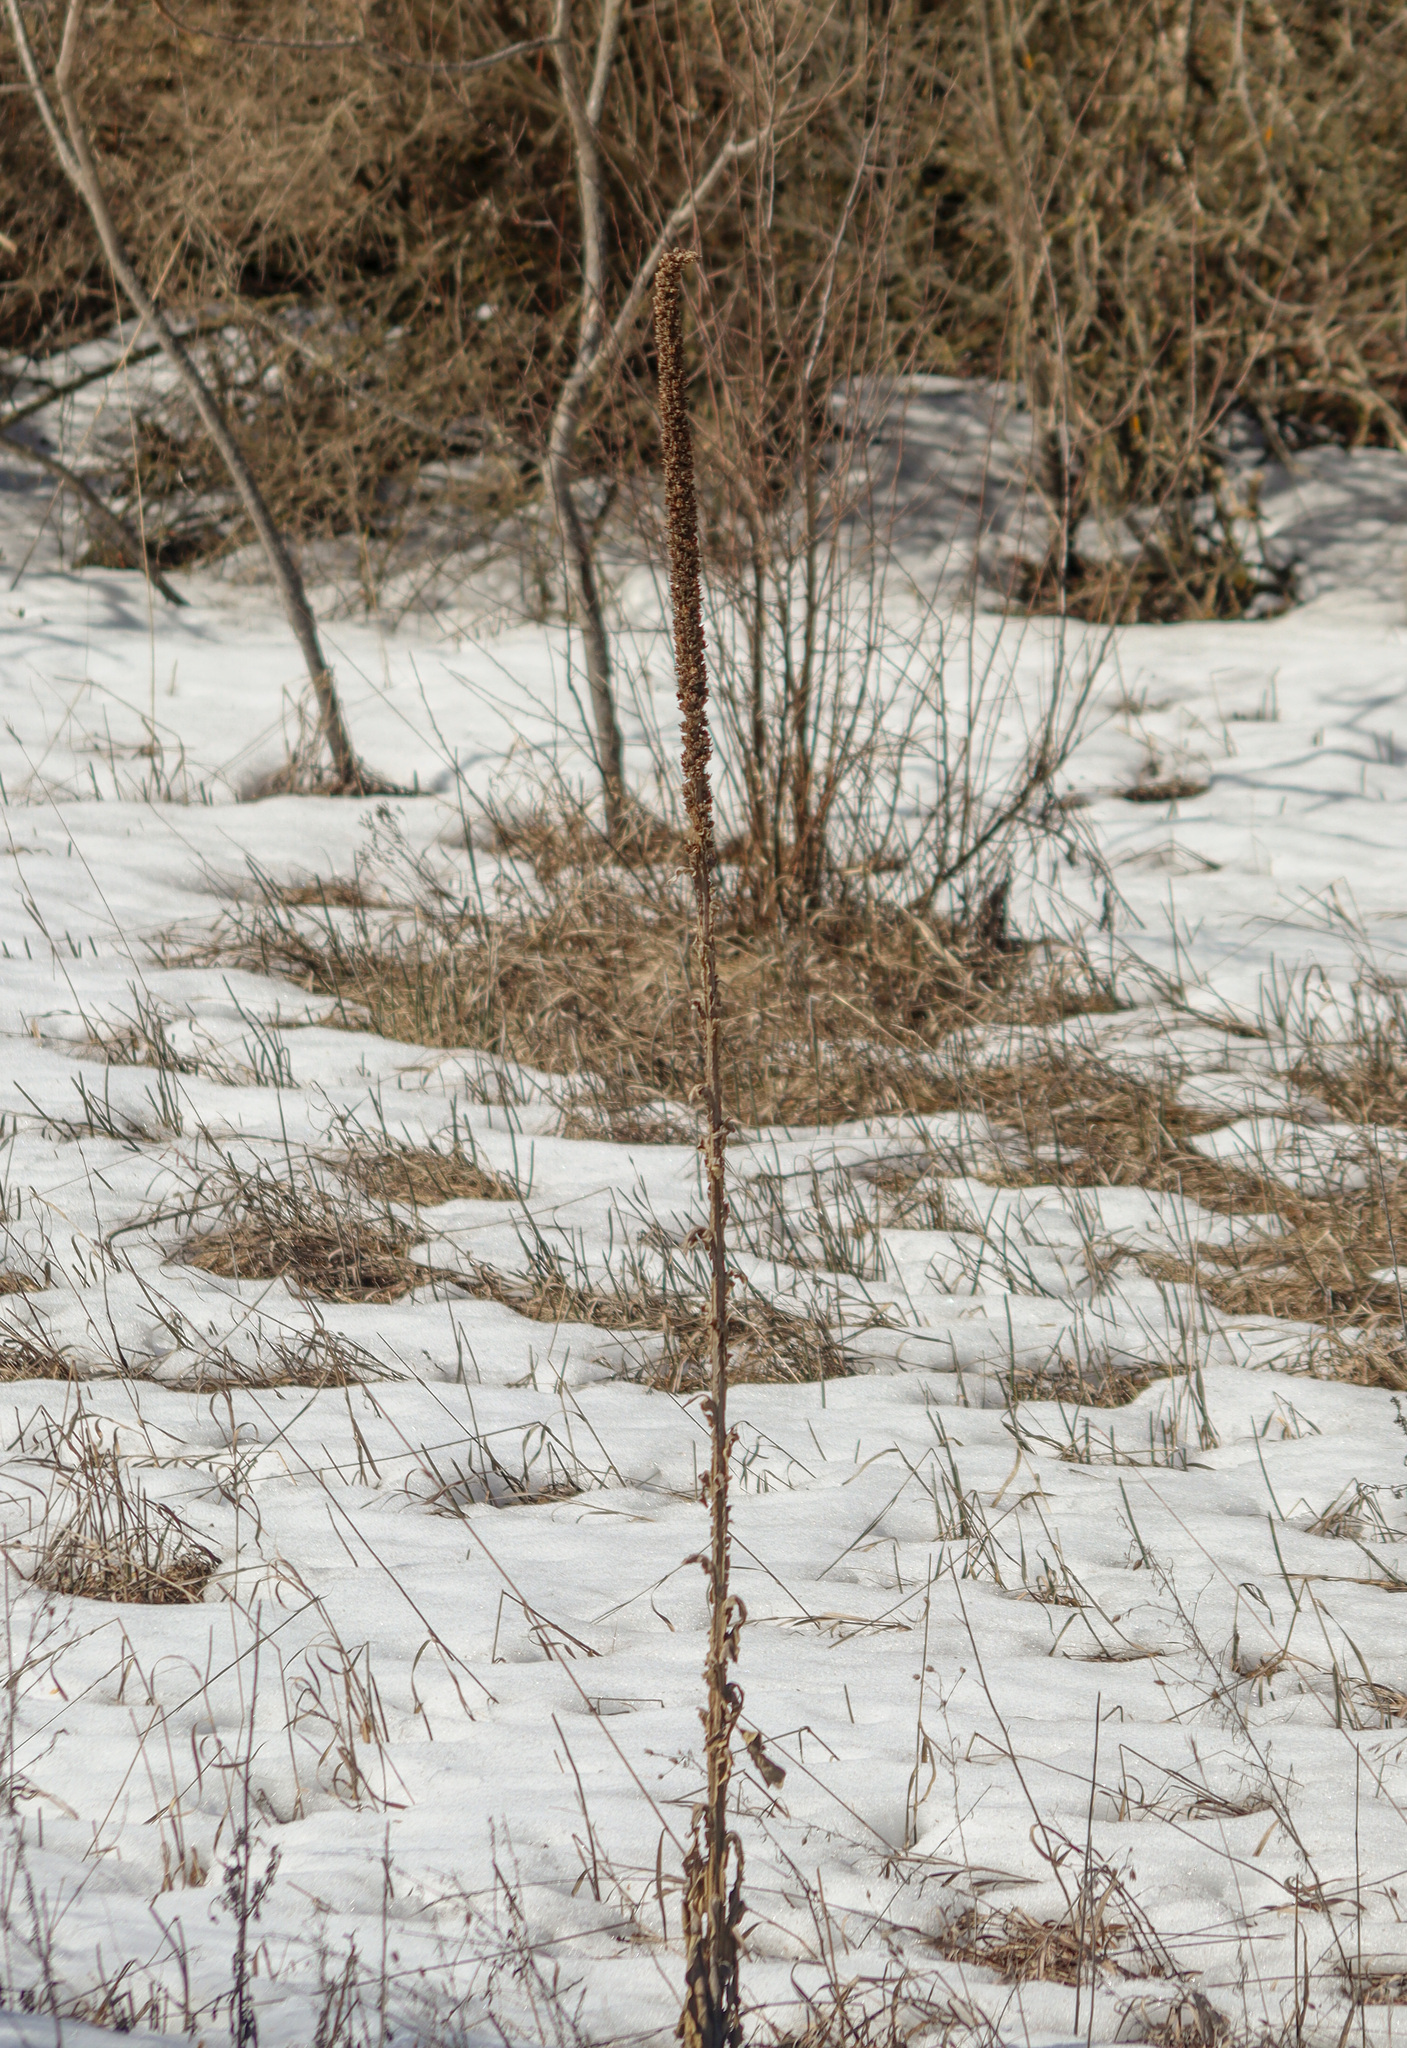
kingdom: Plantae
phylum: Tracheophyta
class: Magnoliopsida
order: Lamiales
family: Scrophulariaceae
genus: Verbascum
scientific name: Verbascum thapsus
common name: Common mullein
